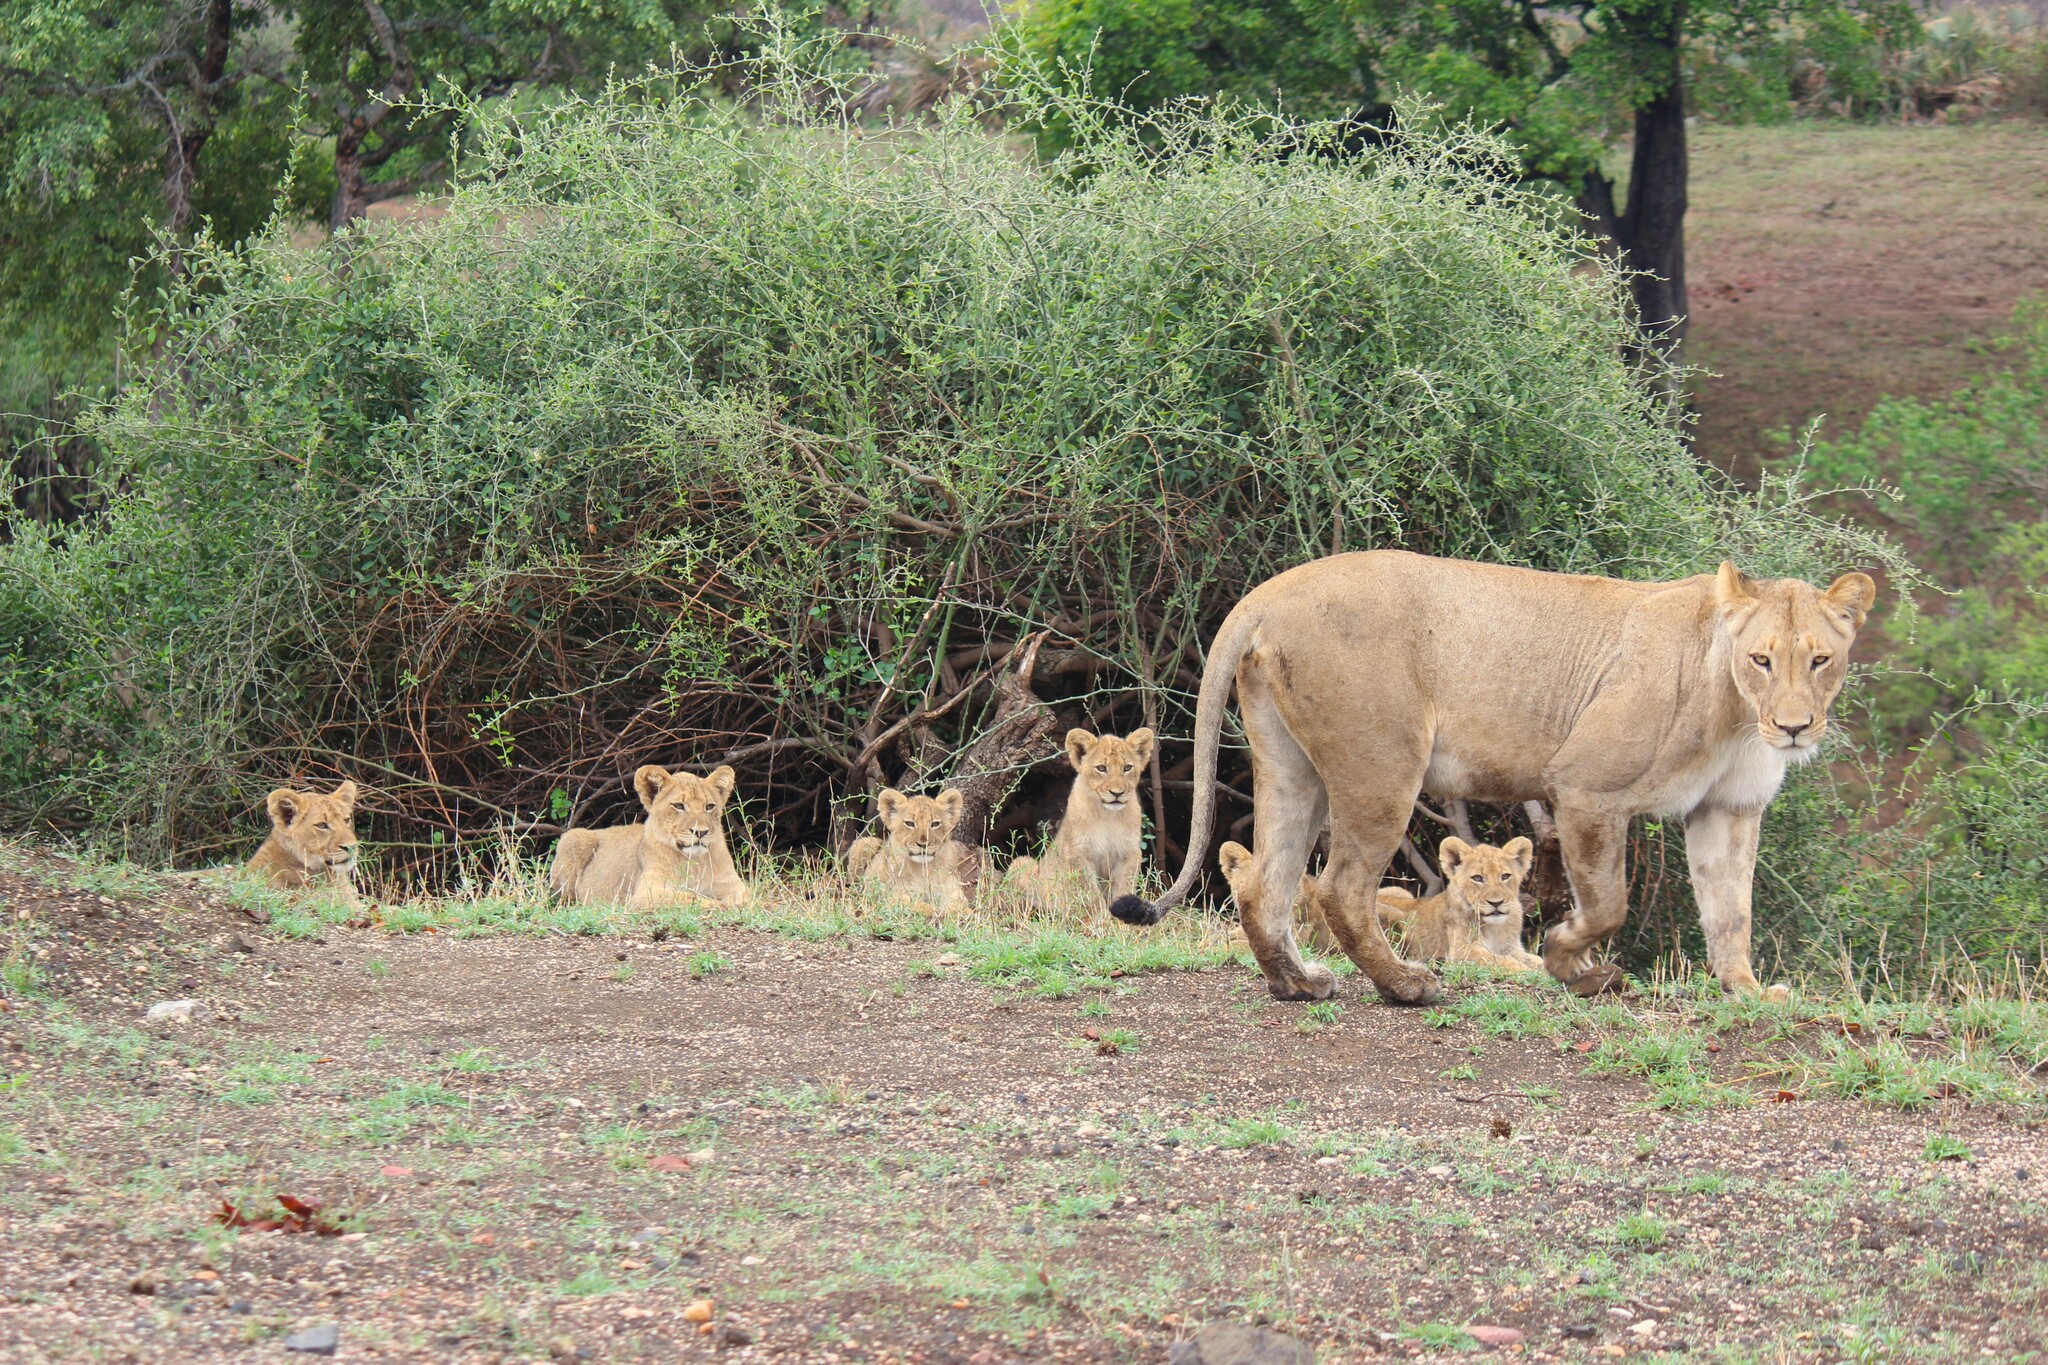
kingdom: Animalia
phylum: Chordata
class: Mammalia
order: Carnivora
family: Felidae
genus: Panthera
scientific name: Panthera leo
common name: Lion
